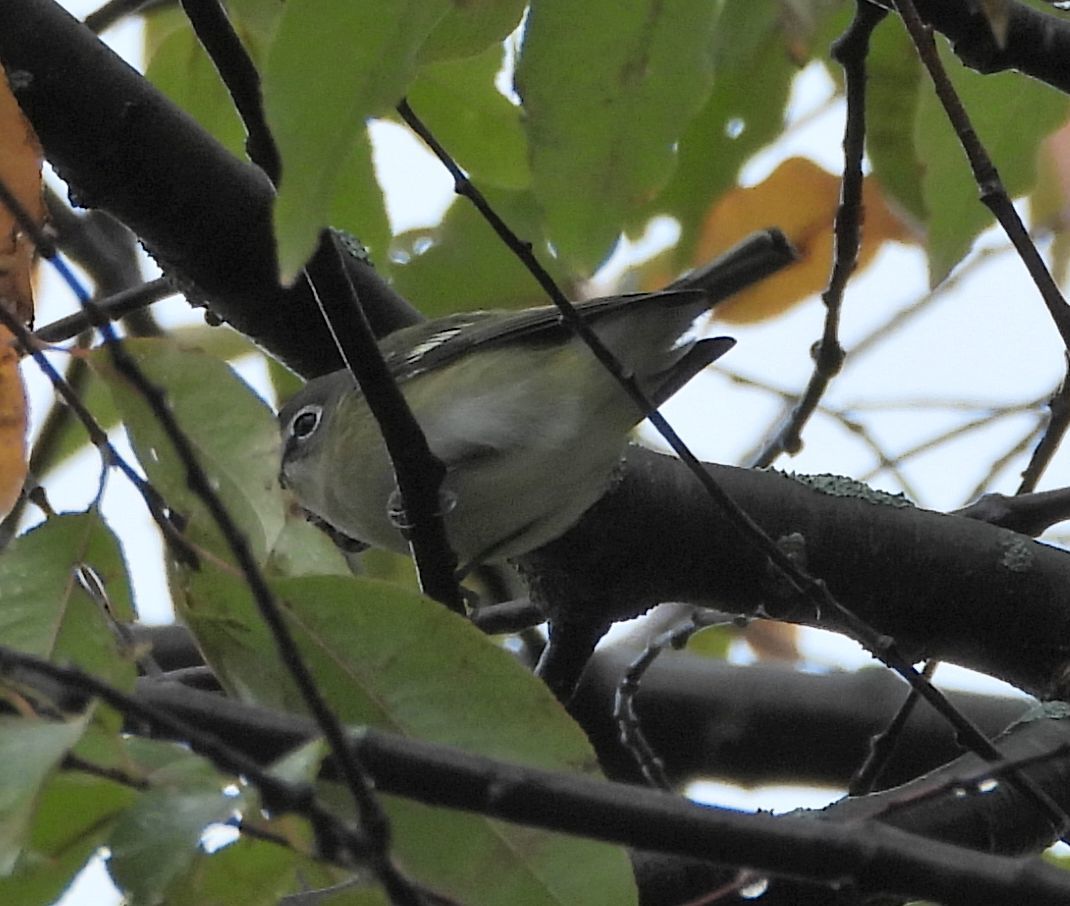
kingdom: Animalia
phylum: Chordata
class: Aves
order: Passeriformes
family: Vireonidae
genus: Vireo
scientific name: Vireo solitarius
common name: Blue-headed vireo
